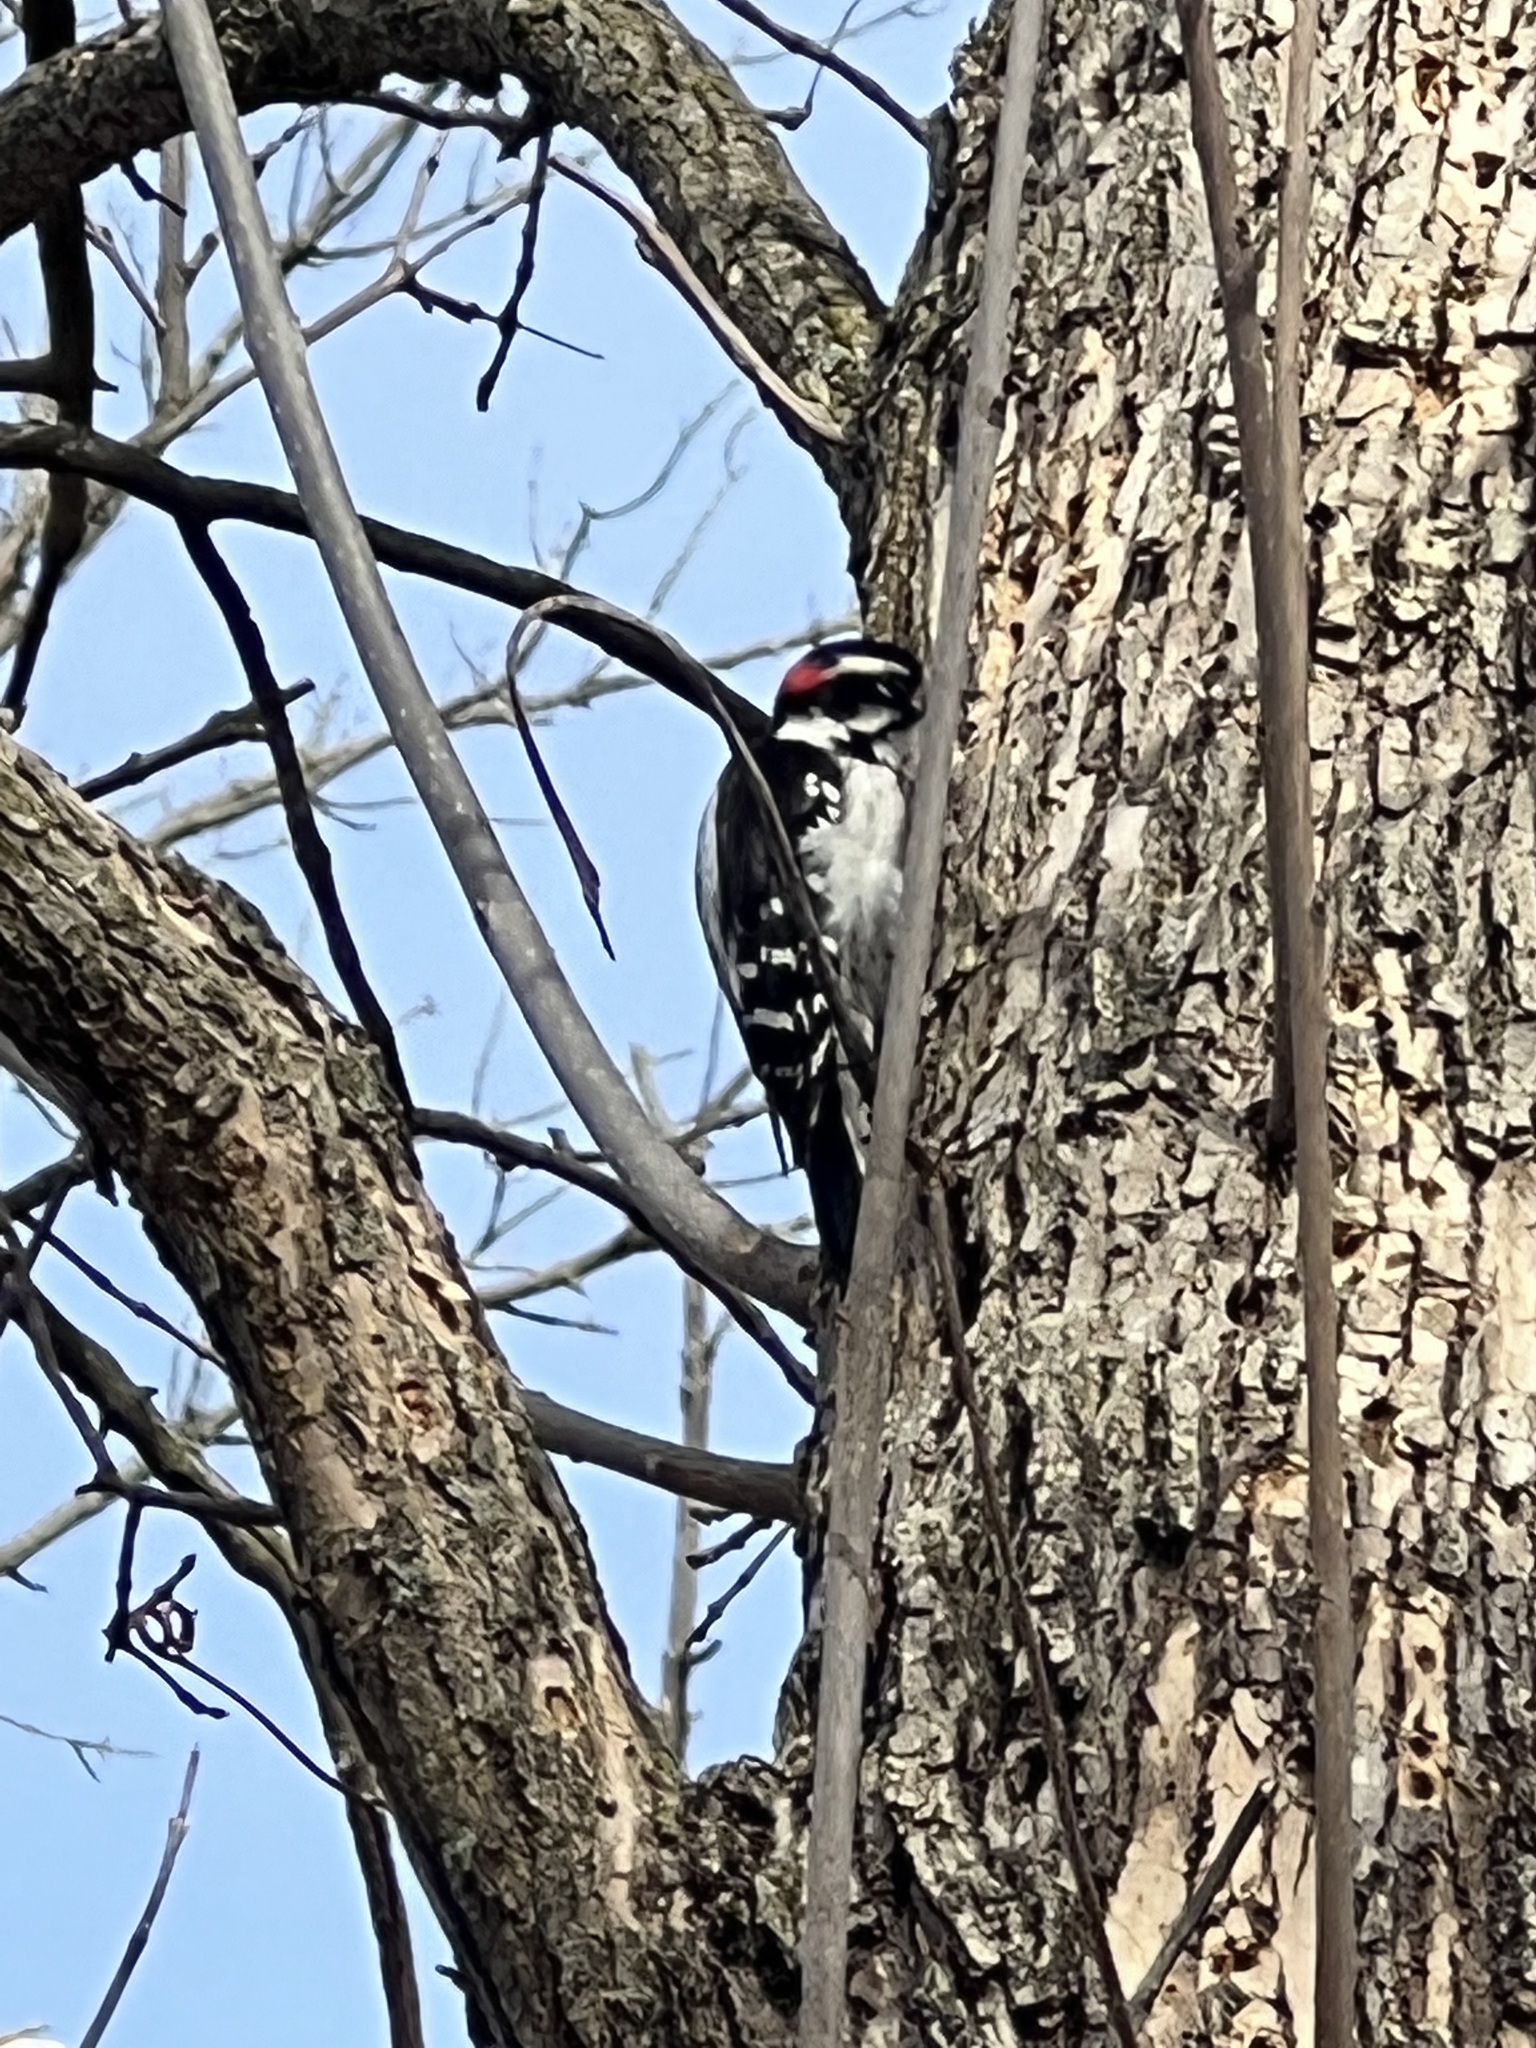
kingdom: Animalia
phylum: Chordata
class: Aves
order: Piciformes
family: Picidae
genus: Dryobates
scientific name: Dryobates pubescens
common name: Downy woodpecker
